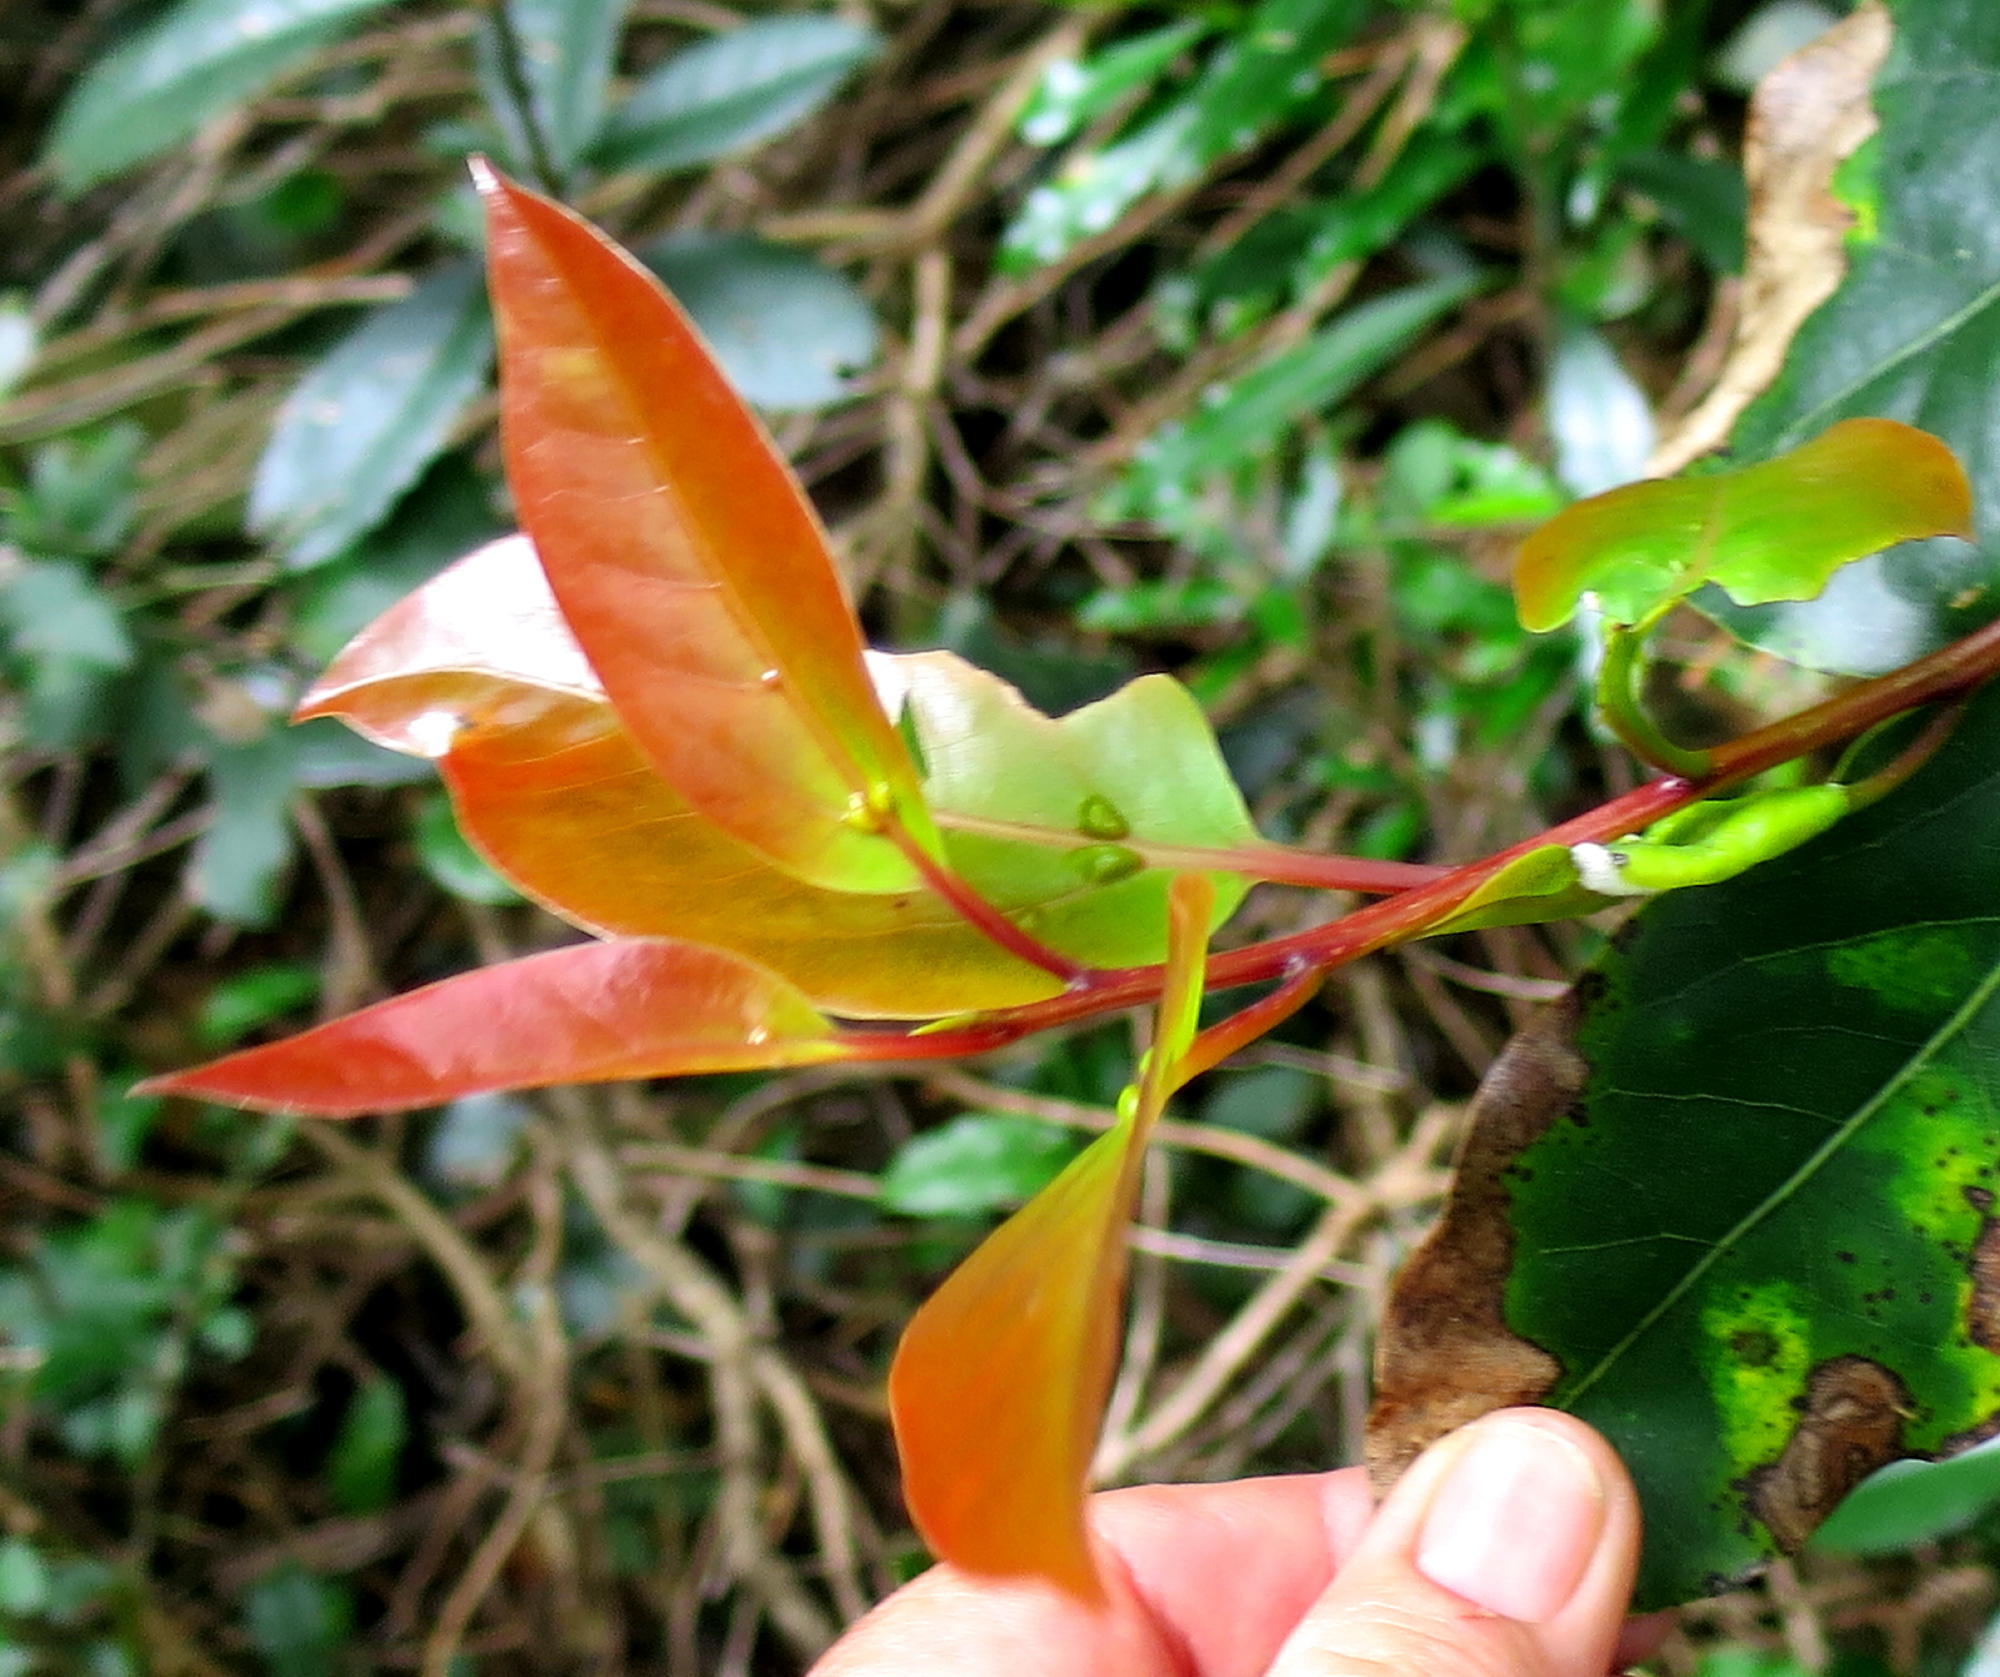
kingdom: Plantae
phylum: Tracheophyta
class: Magnoliopsida
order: Laurales
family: Lauraceae
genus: Ocotea
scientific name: Ocotea bullata
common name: Black stinkwood
